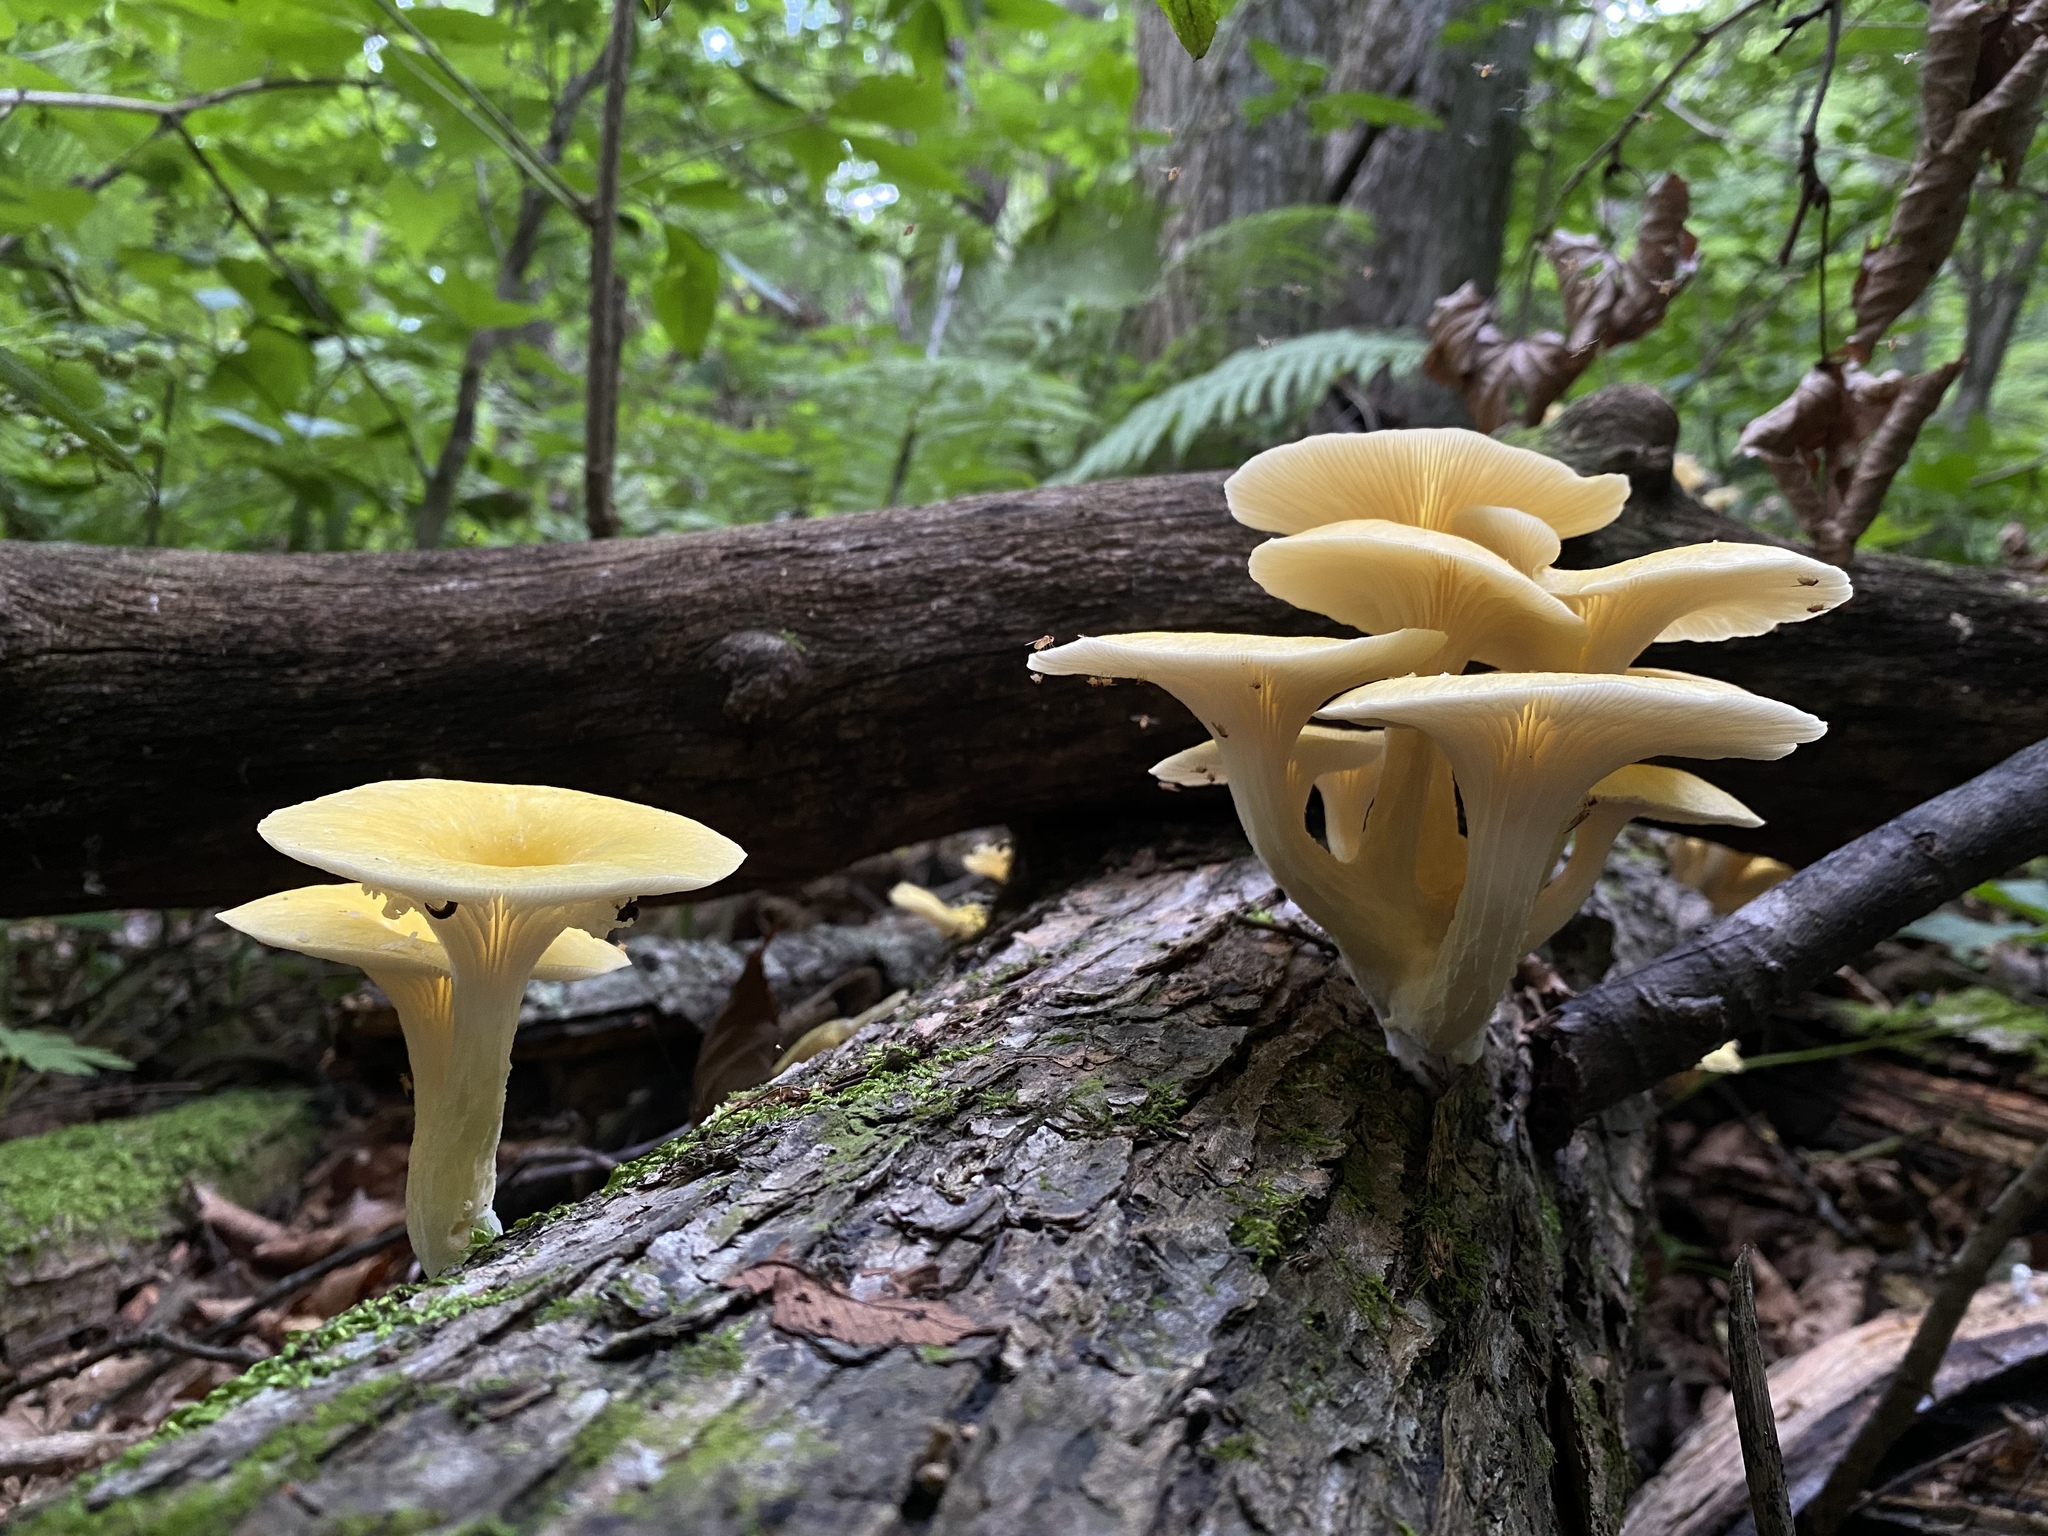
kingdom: Fungi
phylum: Basidiomycota
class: Agaricomycetes
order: Agaricales
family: Pleurotaceae
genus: Pleurotus
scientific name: Pleurotus citrinopileatus
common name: Golden oyster mushroom
